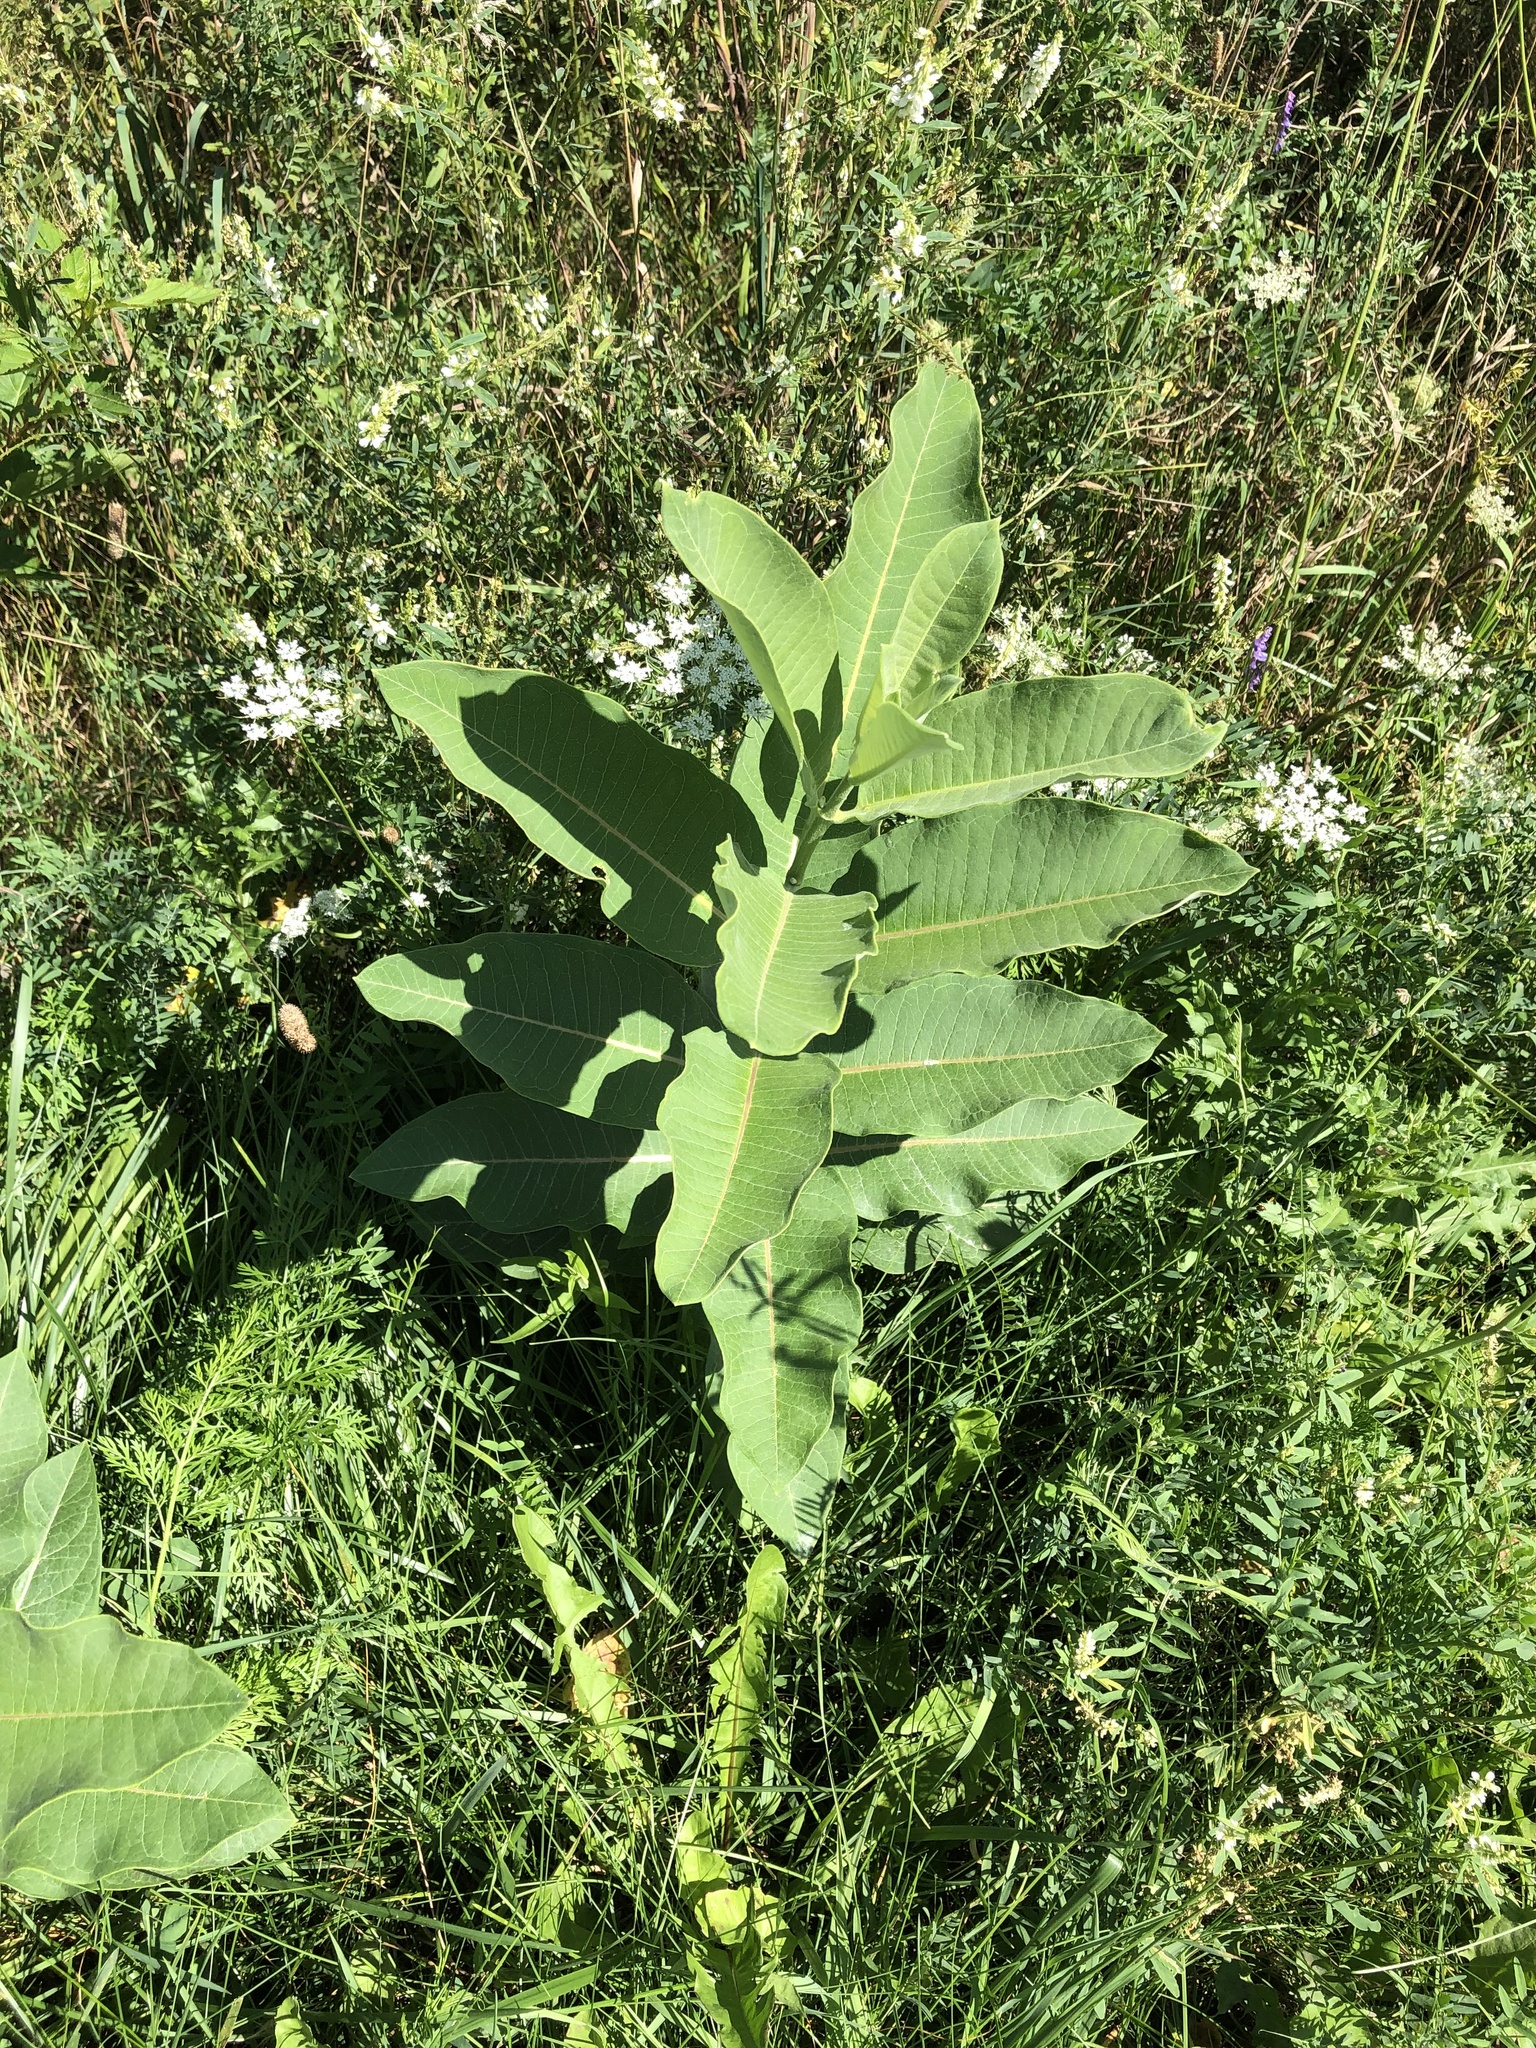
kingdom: Plantae
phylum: Tracheophyta
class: Magnoliopsida
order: Gentianales
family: Apocynaceae
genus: Asclepias
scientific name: Asclepias syriaca
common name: Common milkweed
